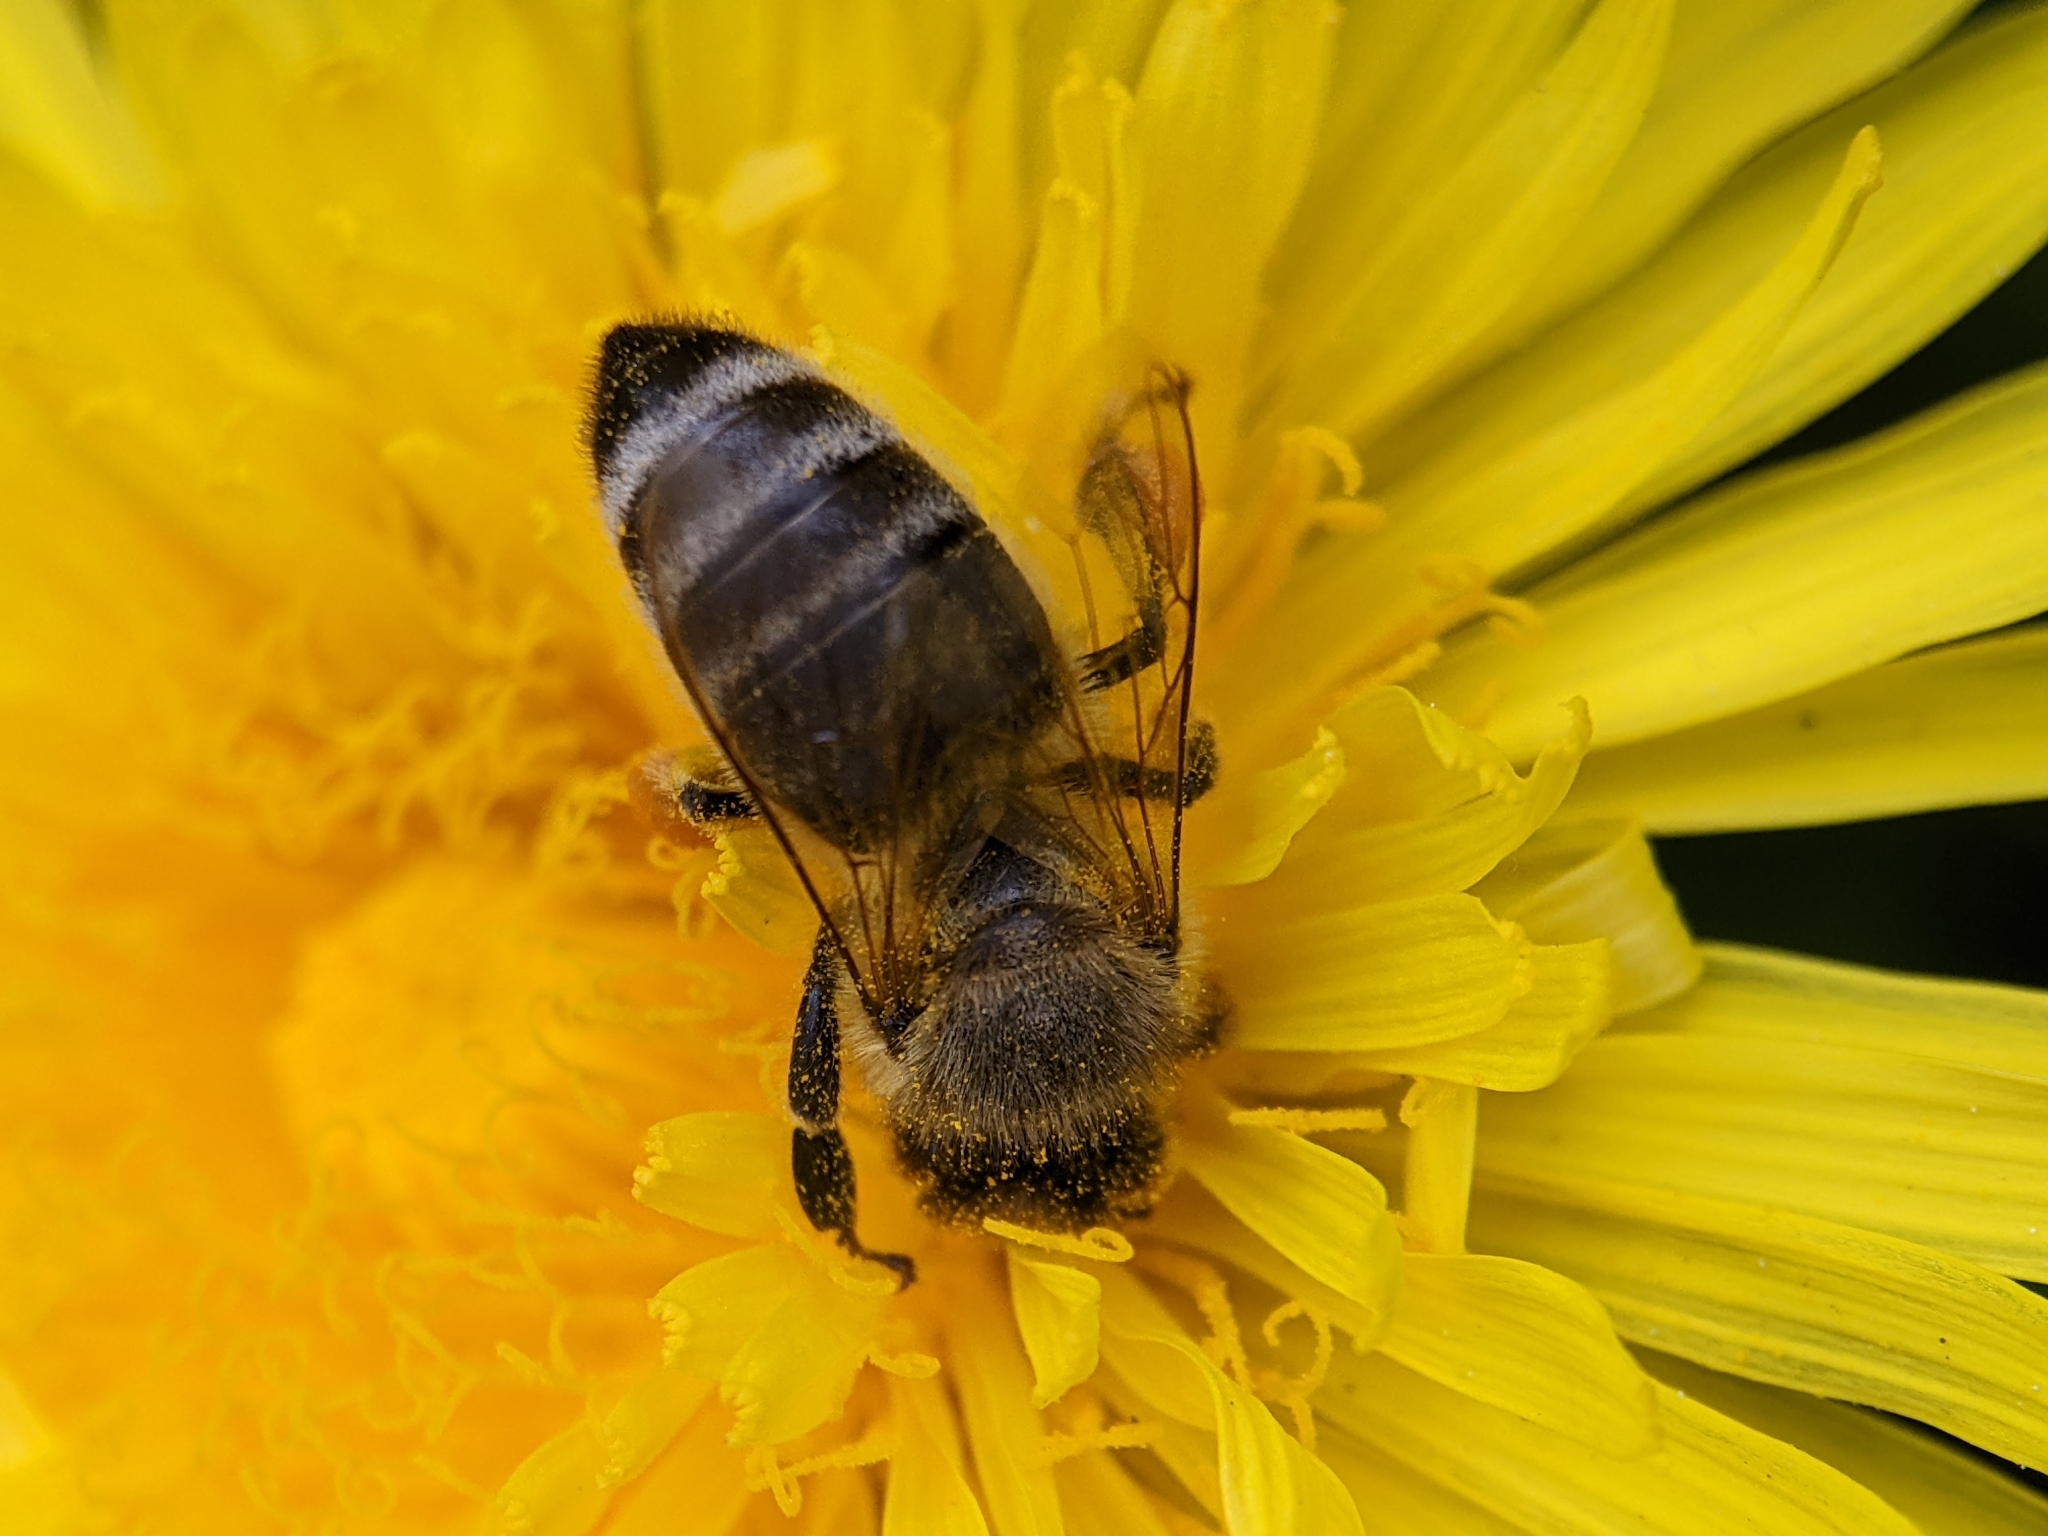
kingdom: Animalia
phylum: Arthropoda
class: Insecta
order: Hymenoptera
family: Apidae
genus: Apis
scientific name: Apis mellifera
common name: Honey bee
